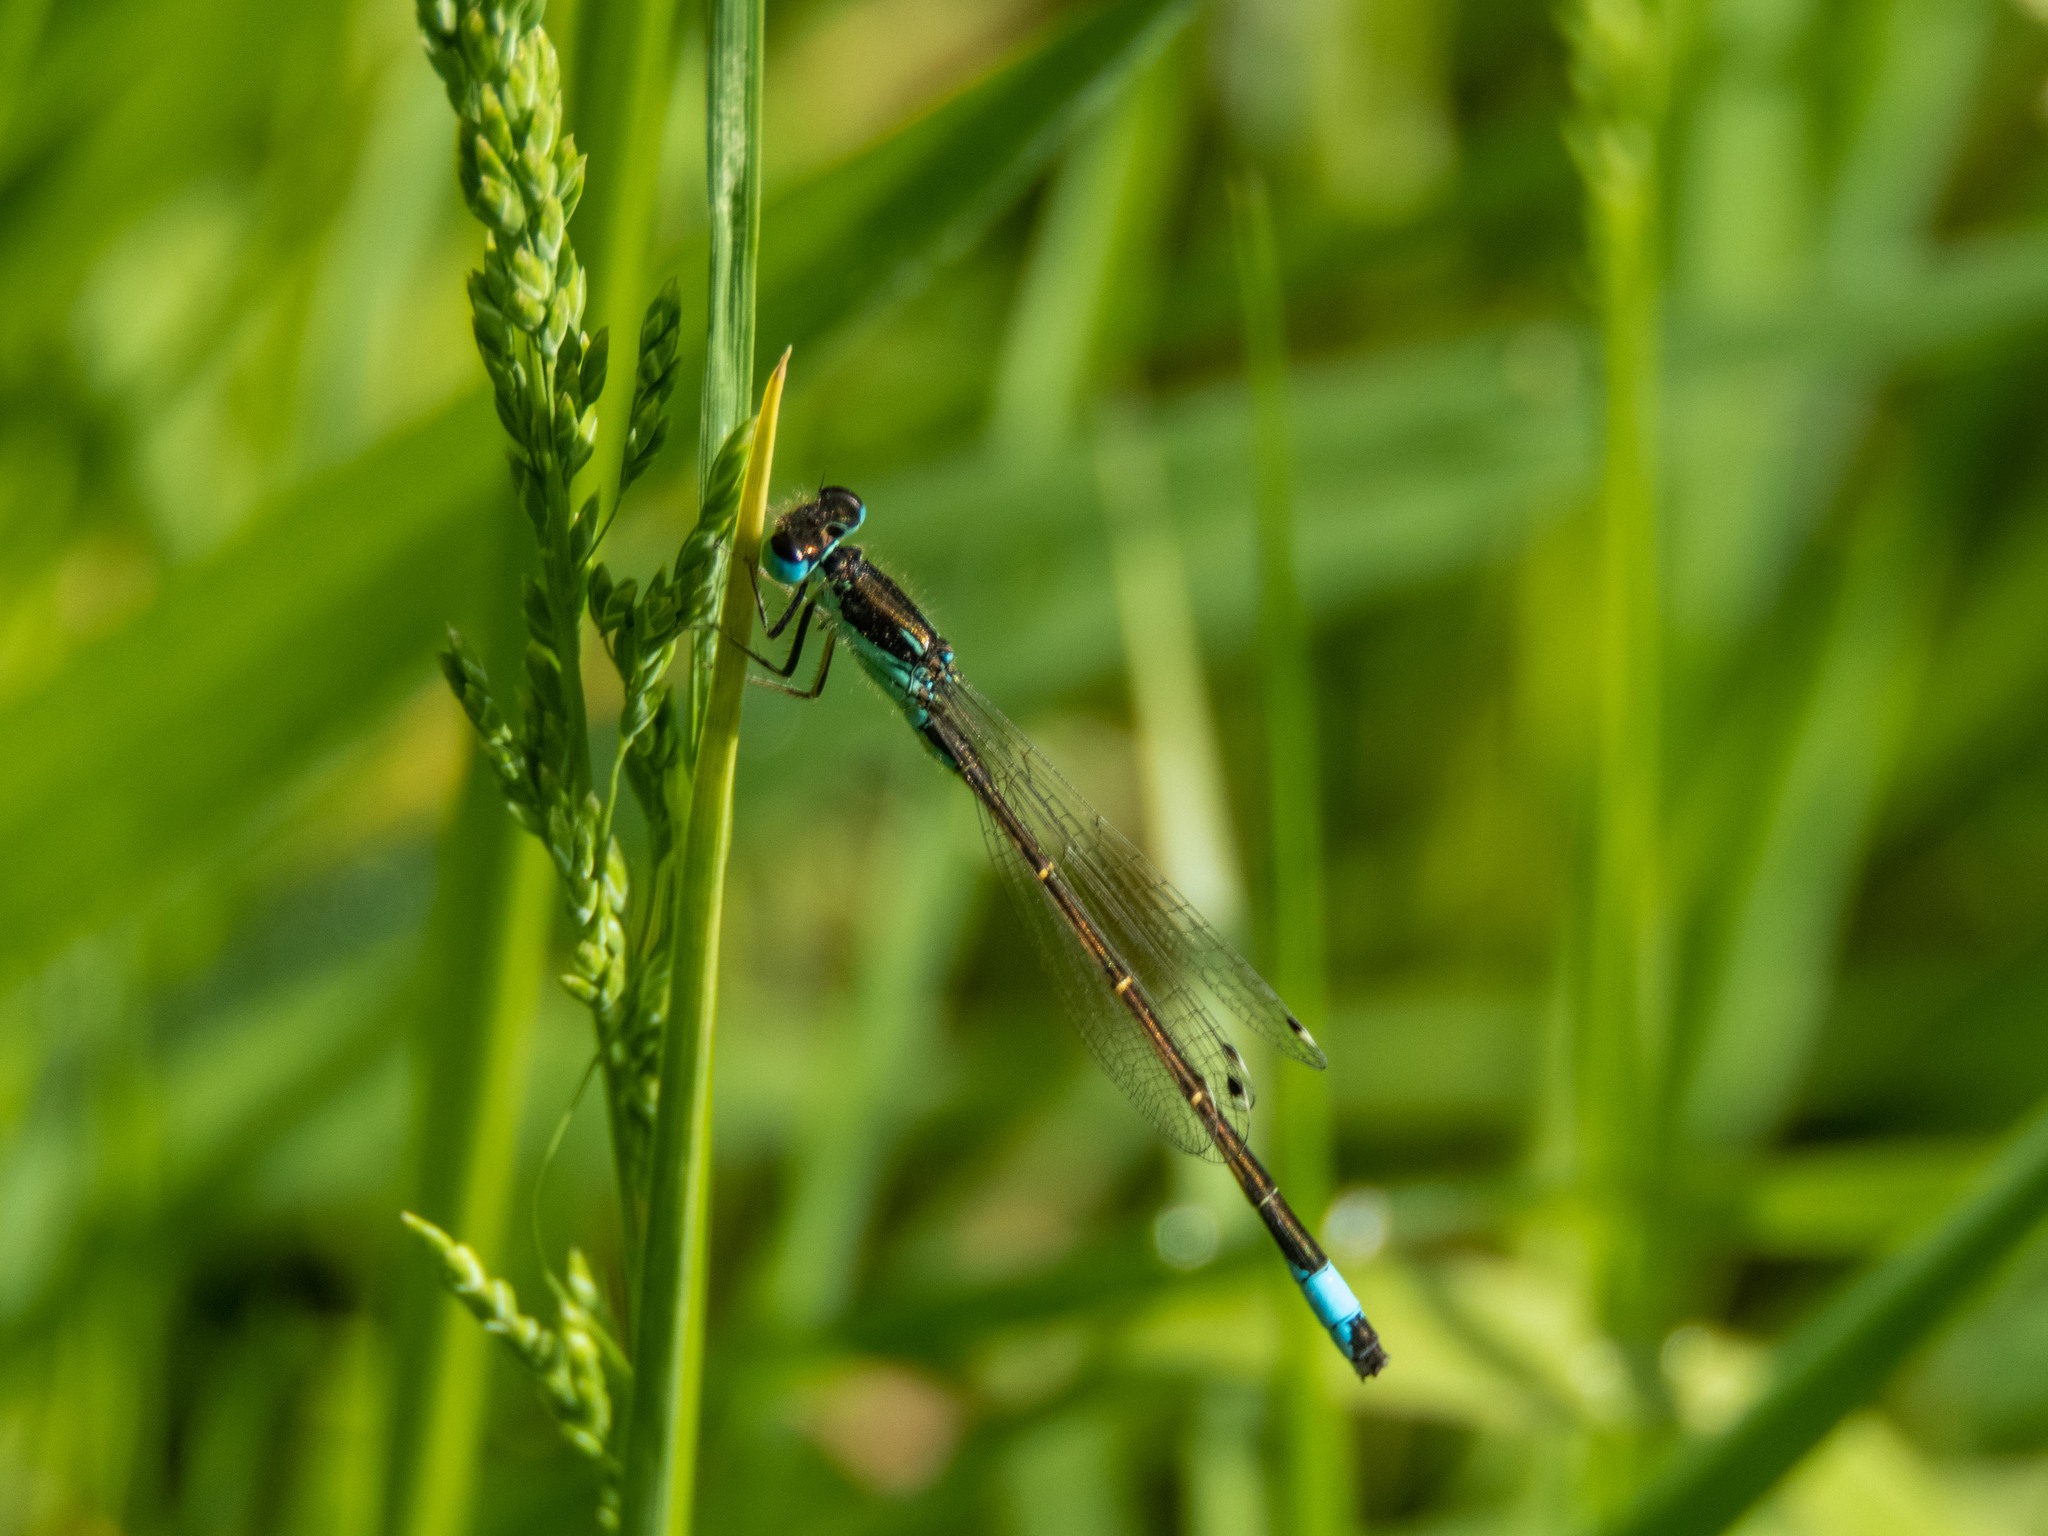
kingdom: Animalia
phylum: Arthropoda
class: Insecta
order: Odonata
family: Coenagrionidae
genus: Ischnura
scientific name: Ischnura graellsii
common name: Iberian bluetail
